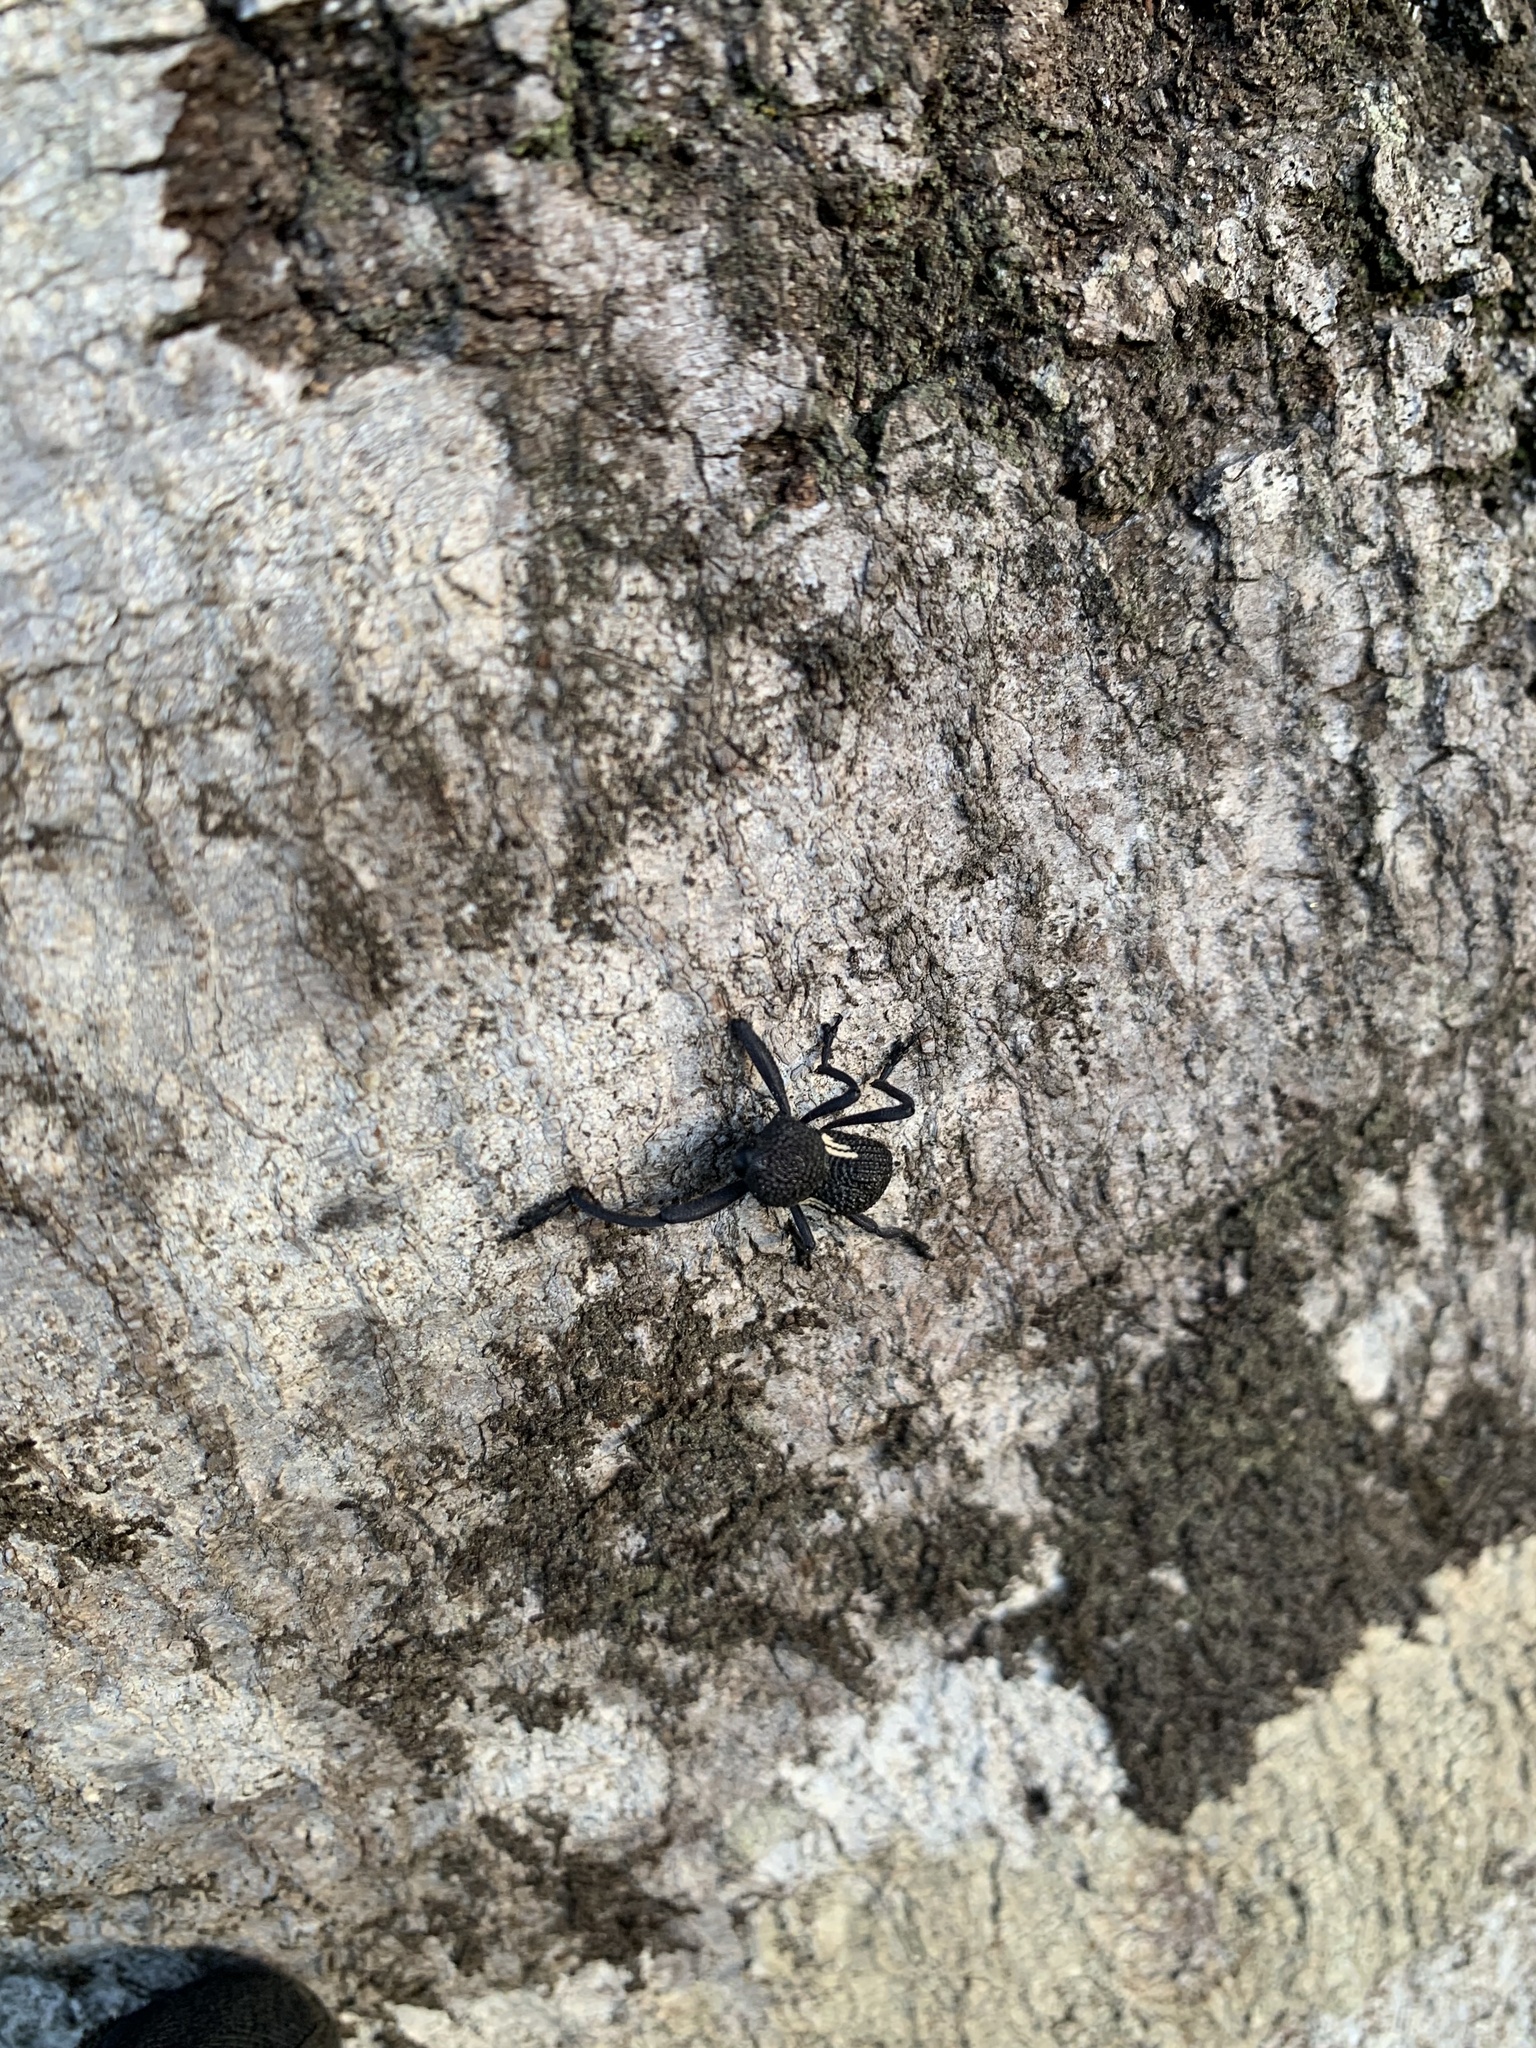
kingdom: Animalia
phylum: Arthropoda
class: Insecta
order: Coleoptera
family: Curculionidae
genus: Rhyephenes
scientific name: Rhyephenes humeralis
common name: Araè±ita chilena del pino
